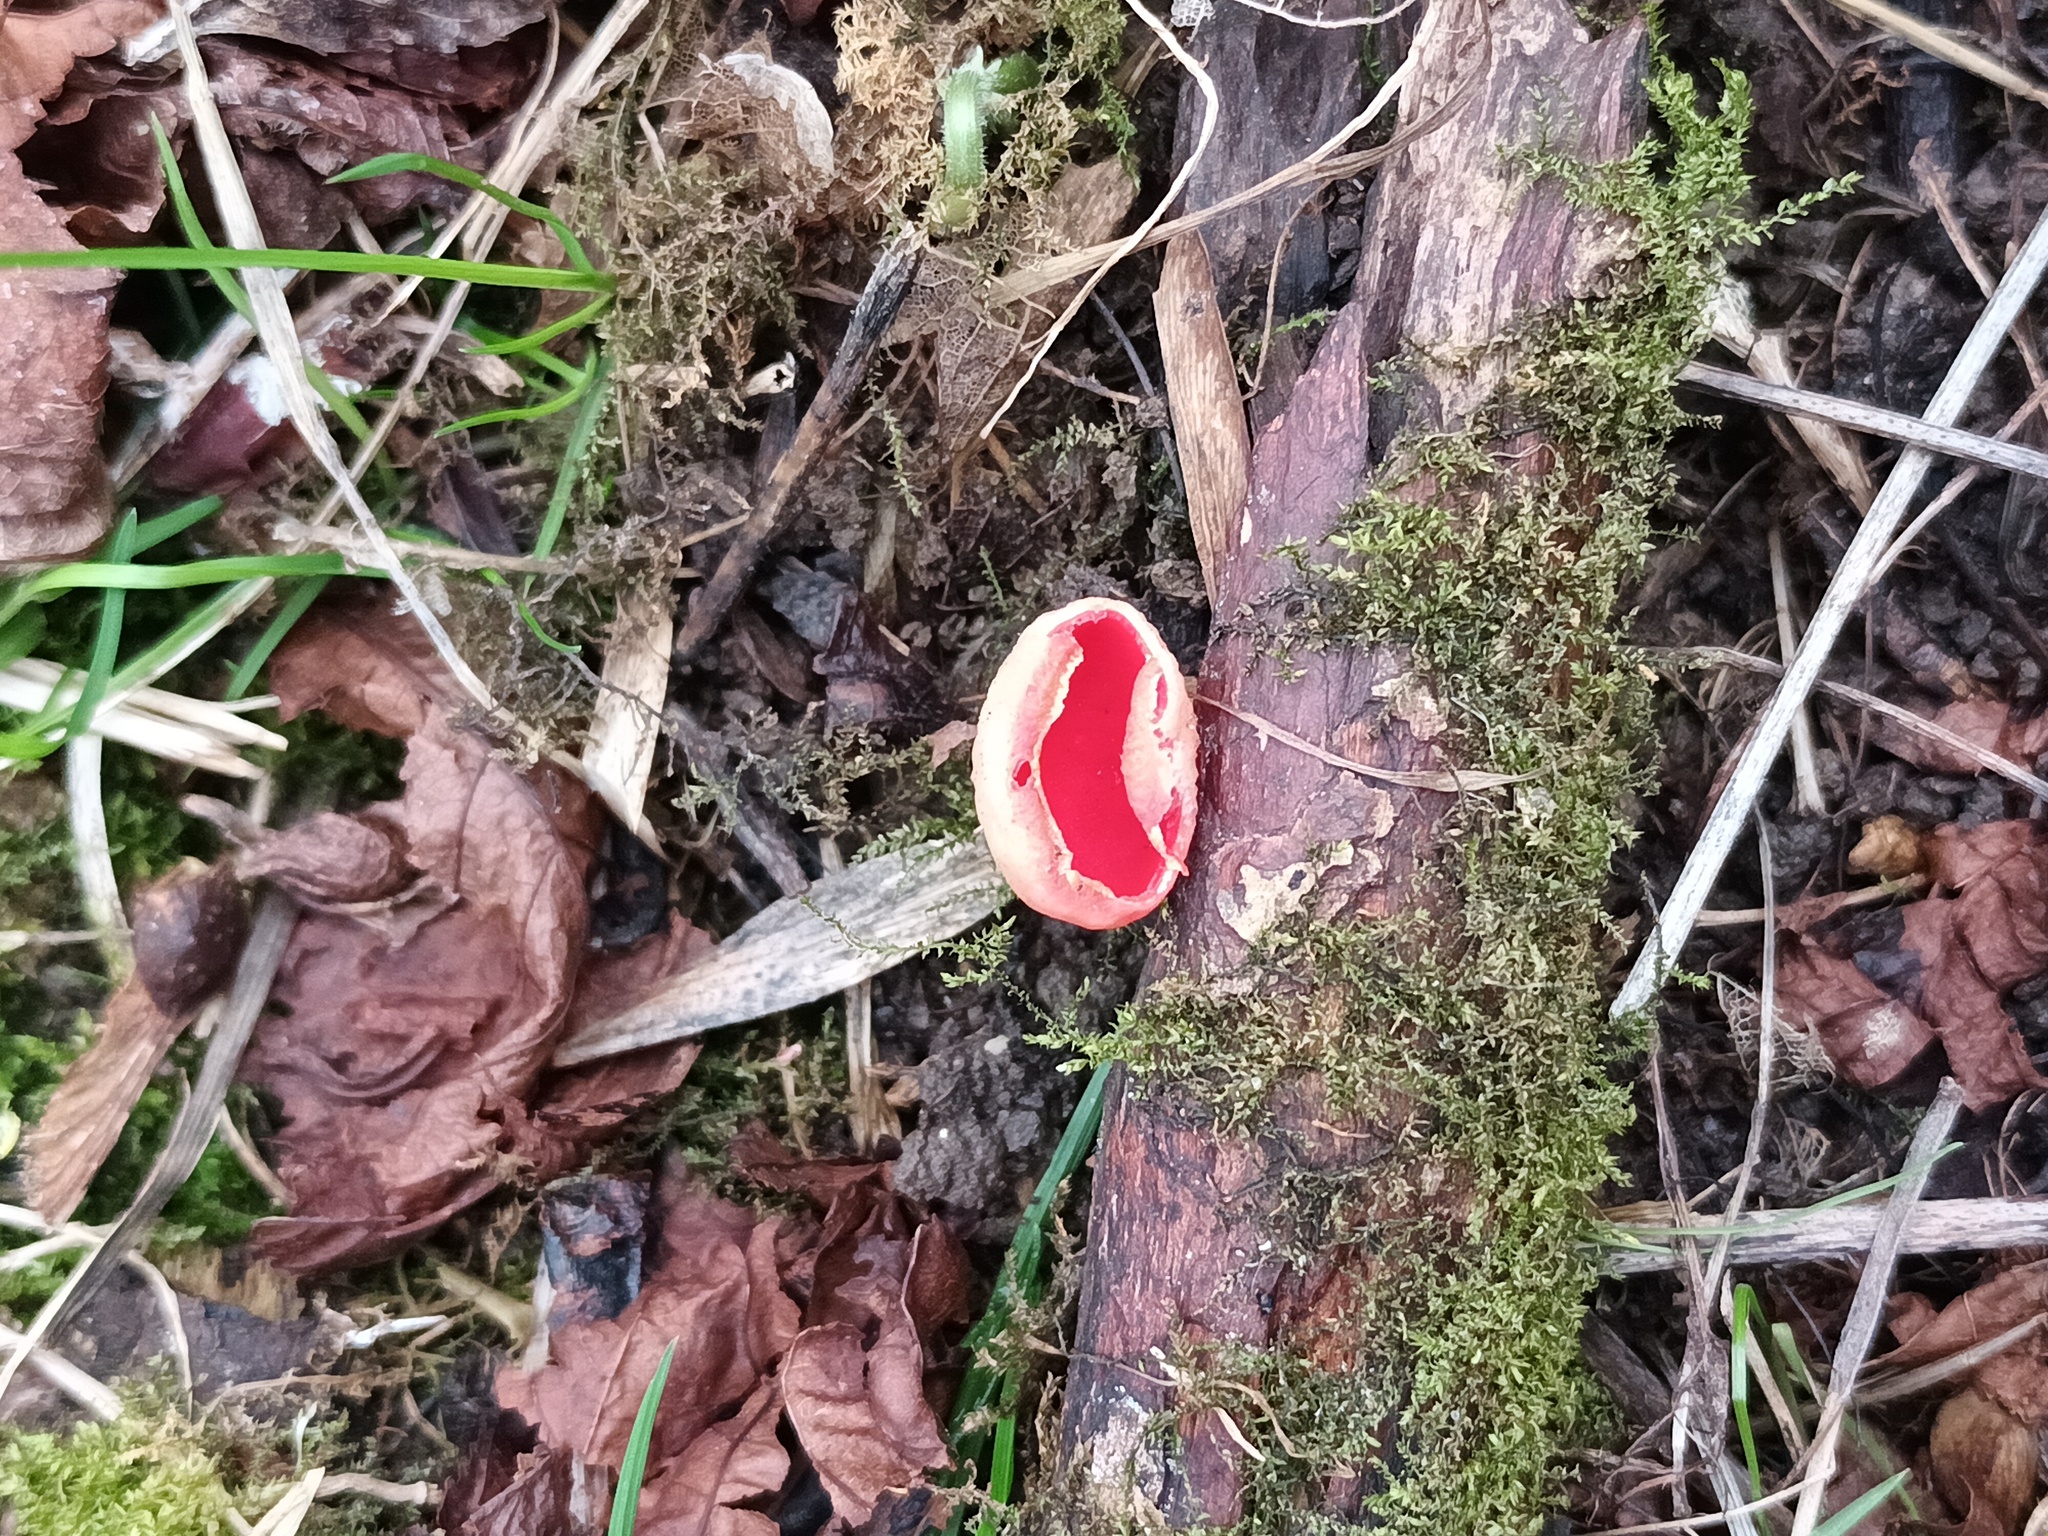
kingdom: Fungi
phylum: Ascomycota
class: Pezizomycetes
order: Pezizales
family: Sarcoscyphaceae
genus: Sarcoscypha
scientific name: Sarcoscypha
